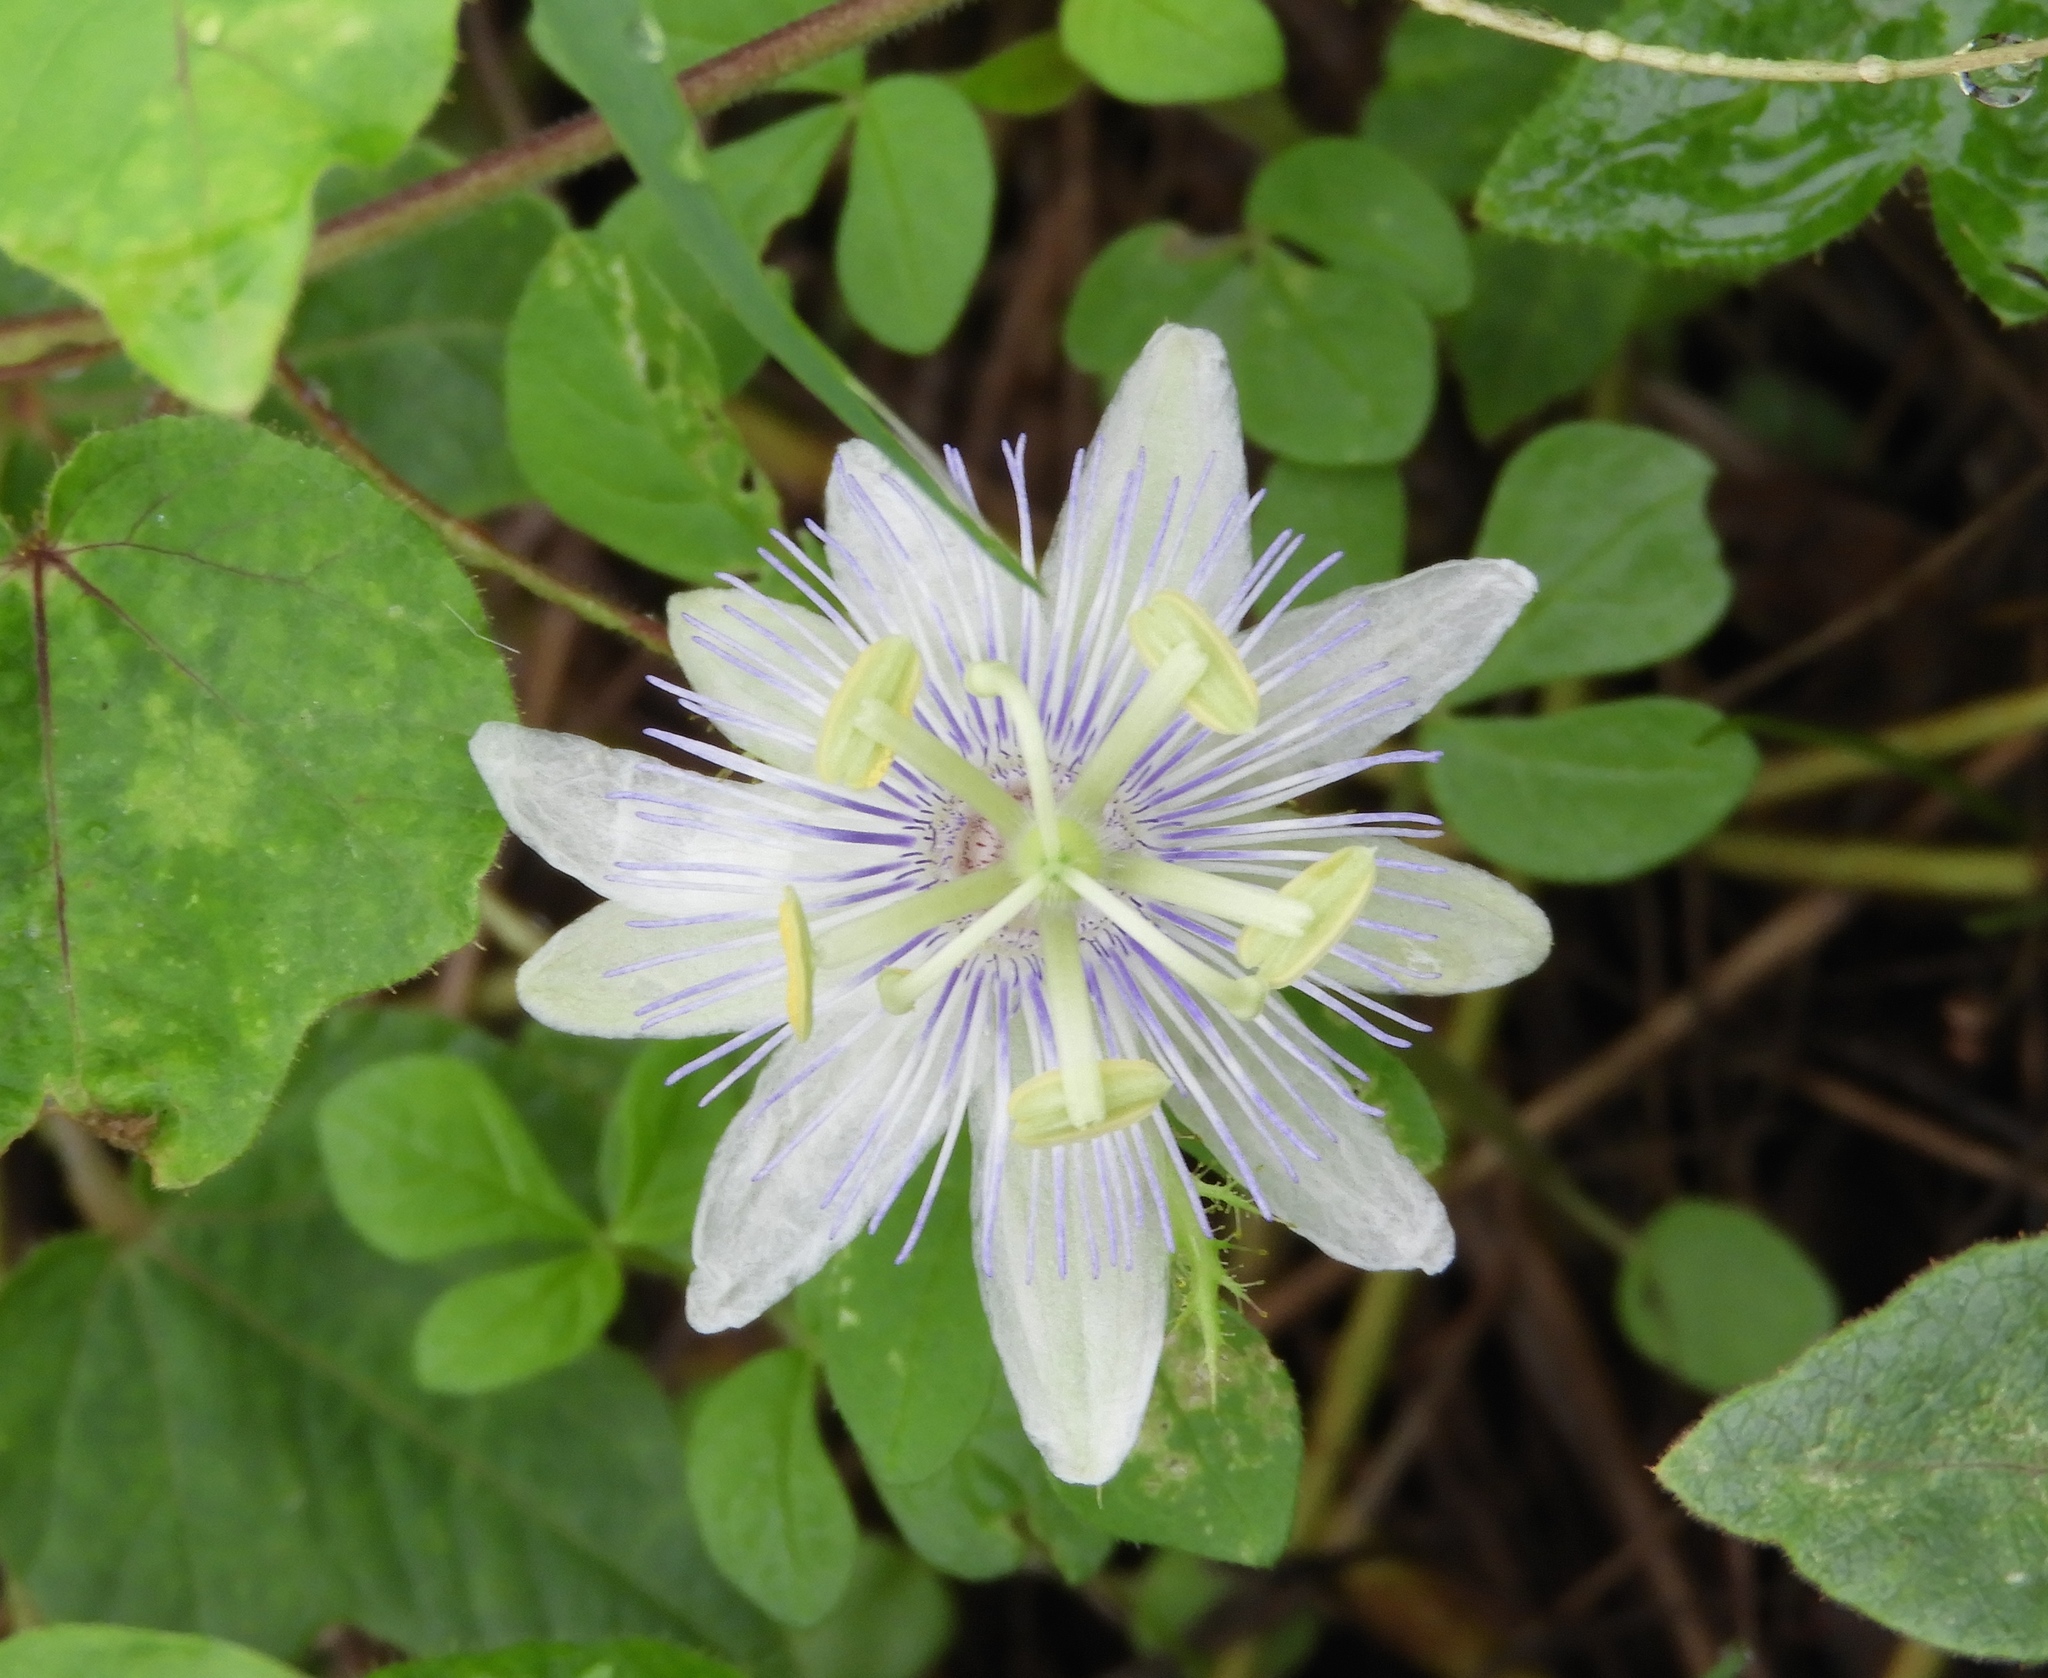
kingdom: Plantae
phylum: Tracheophyta
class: Magnoliopsida
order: Malpighiales
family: Passifloraceae
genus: Passiflora
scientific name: Passiflora foetida
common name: Fetid passionflower
